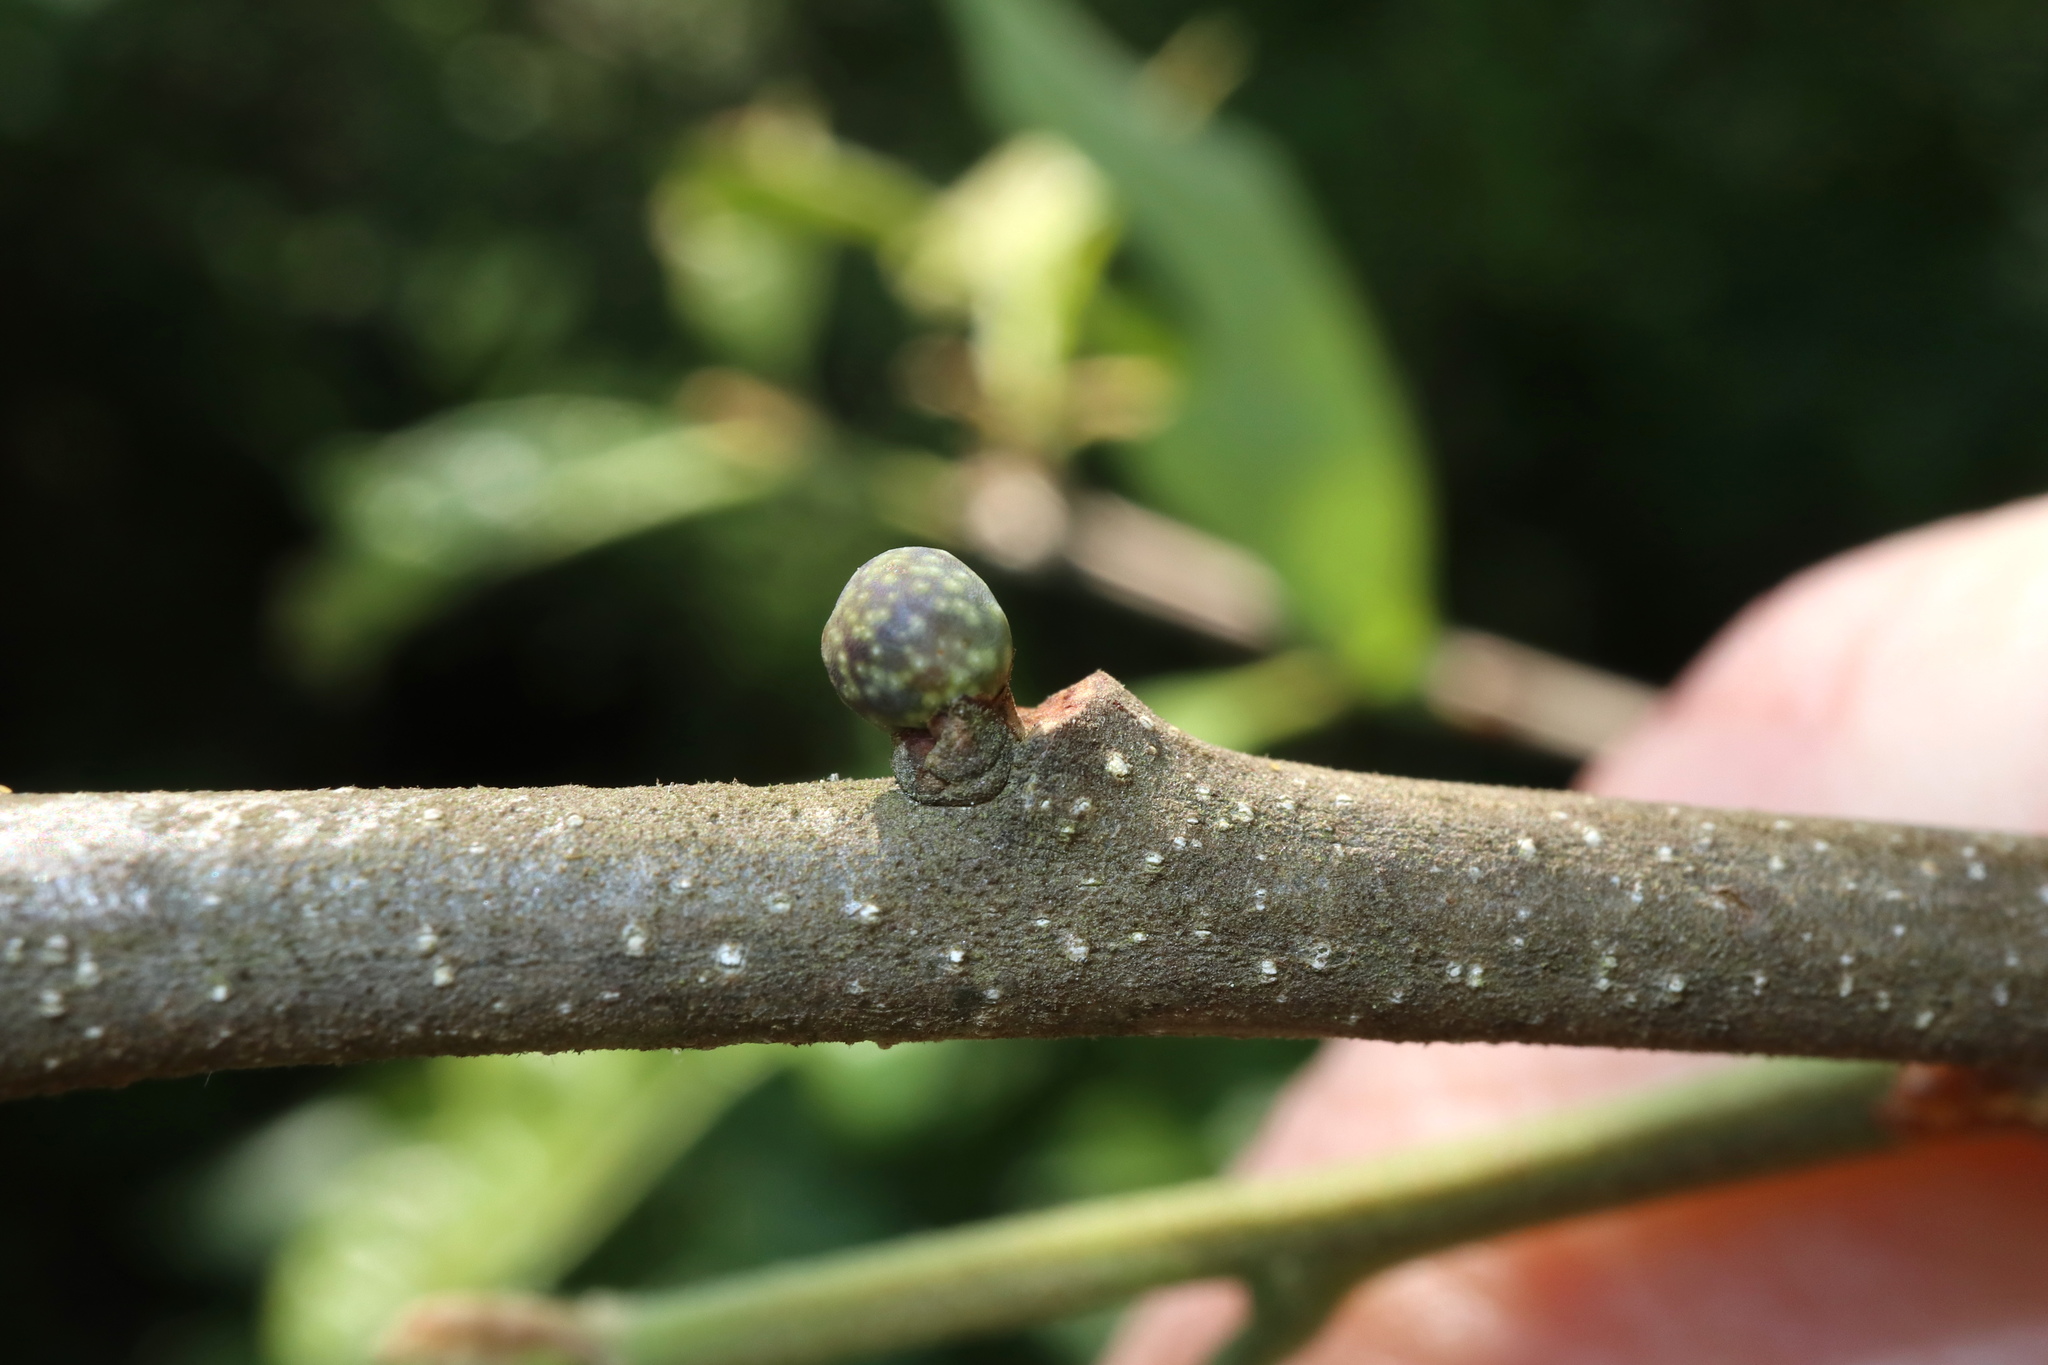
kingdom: Animalia
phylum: Arthropoda
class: Insecta
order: Hymenoptera
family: Cynipidae
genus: Andricus
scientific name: Andricus
